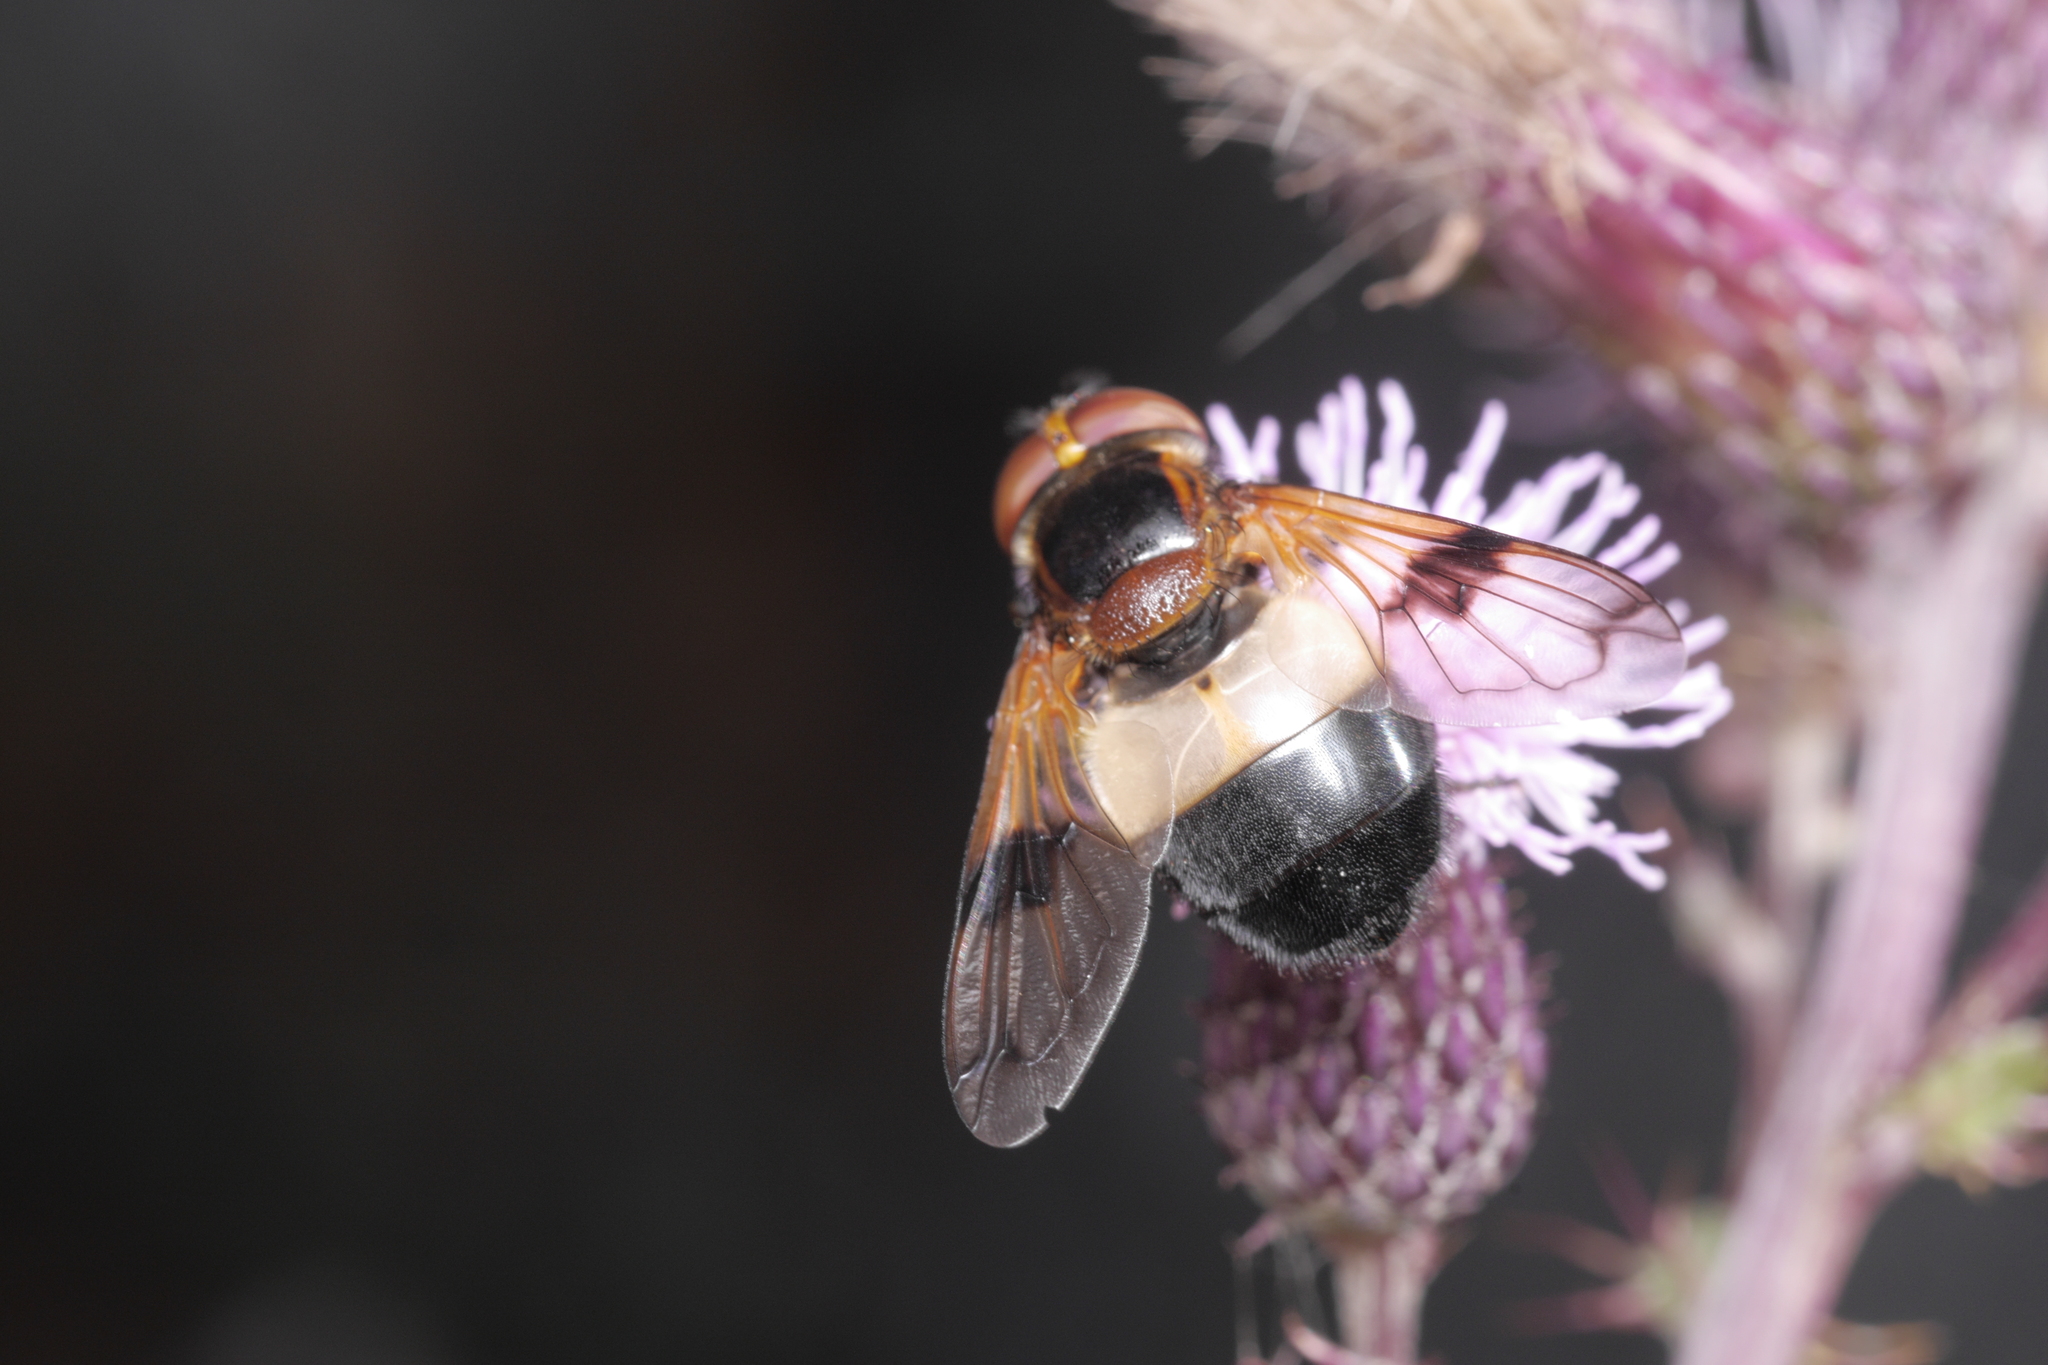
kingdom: Animalia
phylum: Arthropoda
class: Insecta
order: Diptera
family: Syrphidae
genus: Volucella
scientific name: Volucella pellucens
